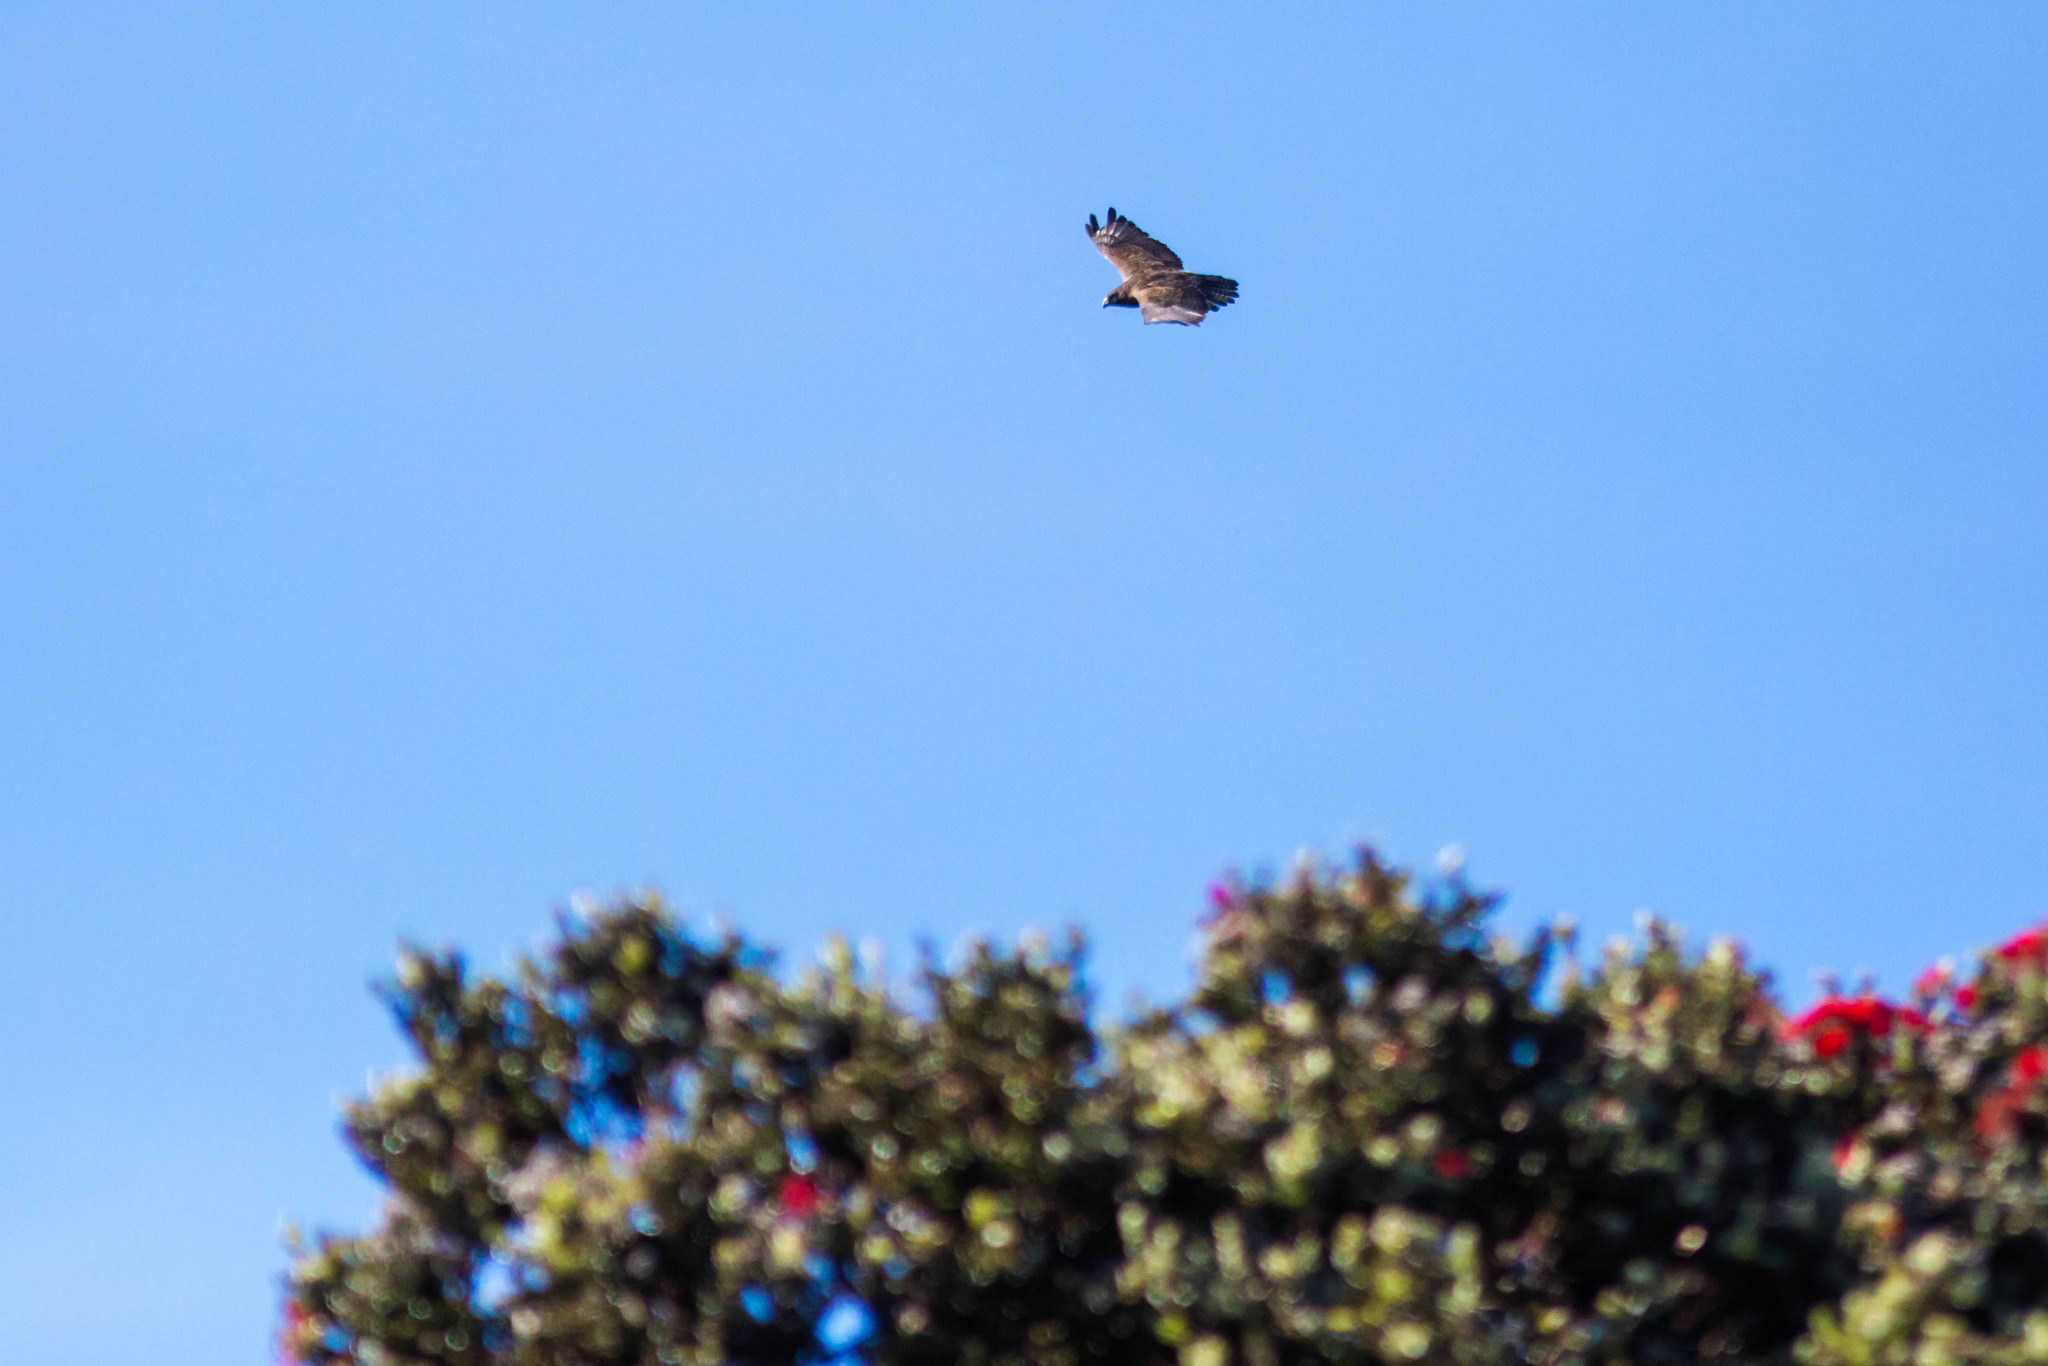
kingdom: Animalia
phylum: Chordata
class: Aves
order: Accipitriformes
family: Accipitridae
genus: Buteo
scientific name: Buteo solitarius
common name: Hawaiian hawk
